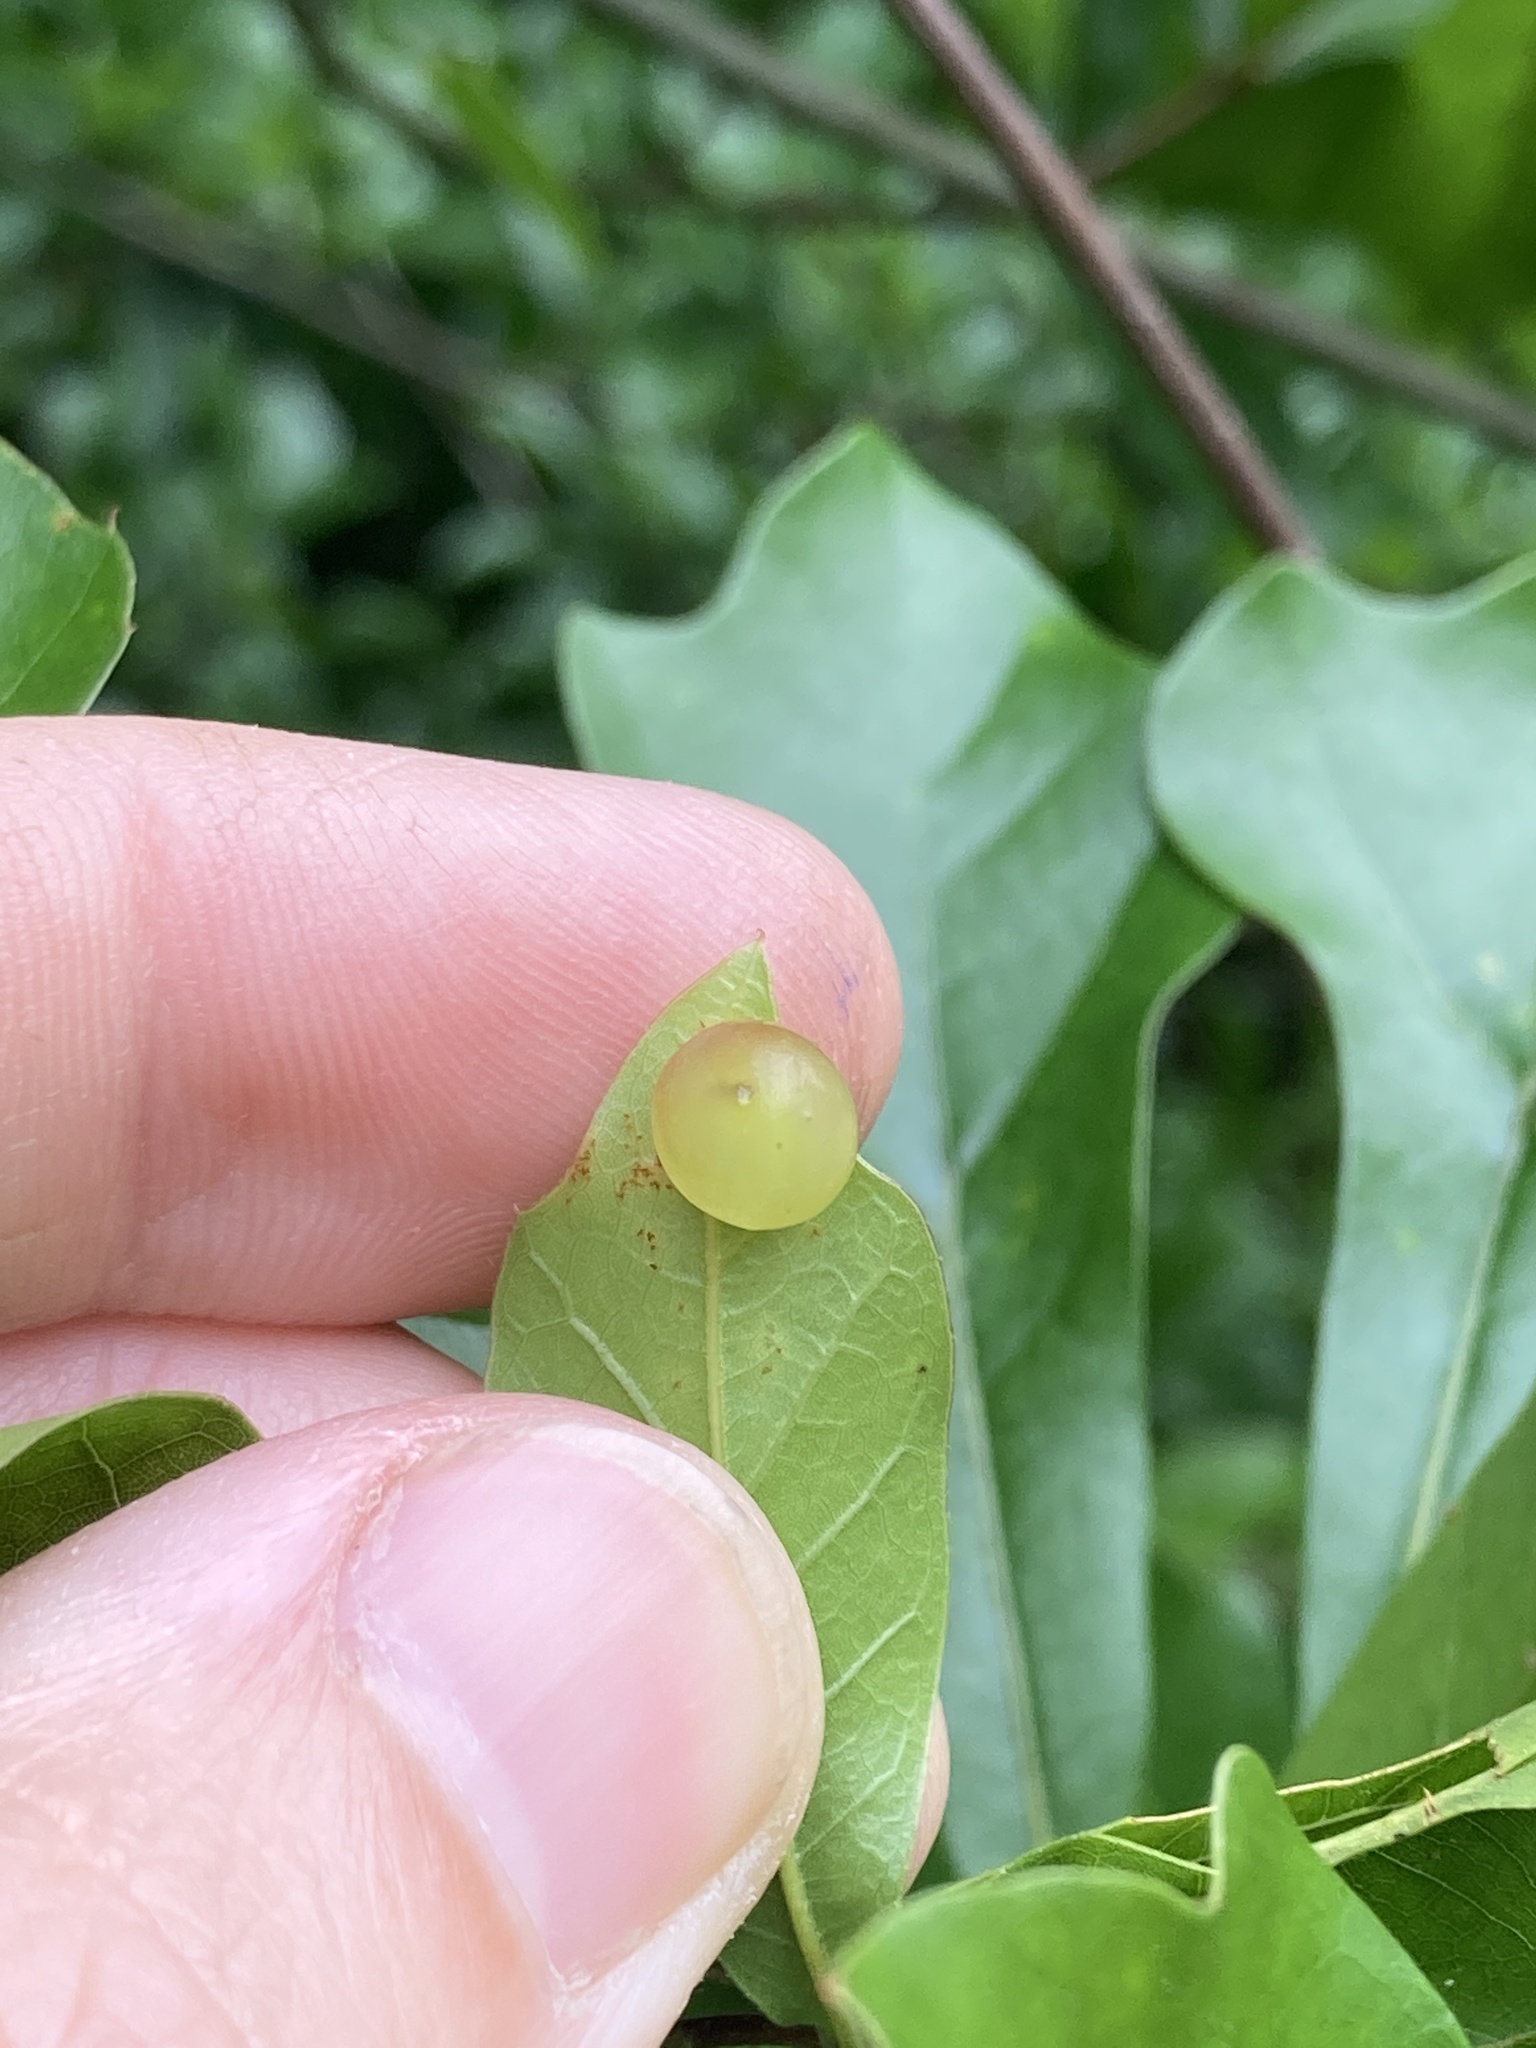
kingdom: Animalia
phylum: Arthropoda
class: Insecta
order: Hymenoptera
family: Cynipidae
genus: Amphibolips
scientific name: Amphibolips
